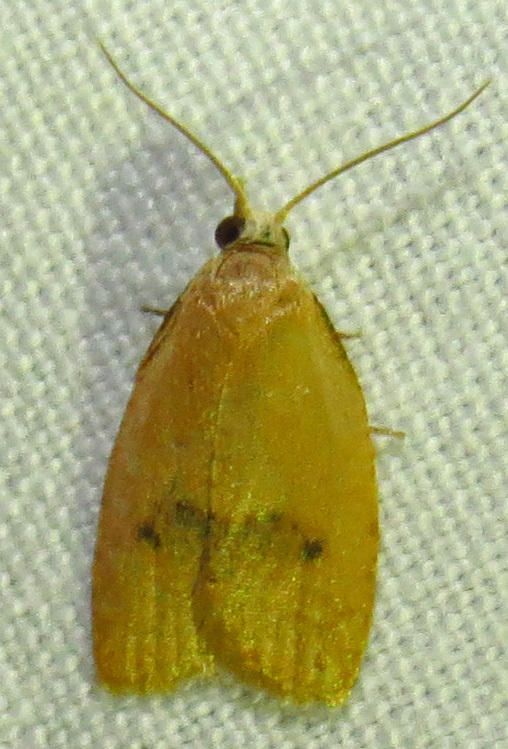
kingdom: Animalia
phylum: Arthropoda
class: Insecta
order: Lepidoptera
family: Tortricidae
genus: Sparganothoides
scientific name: Sparganothoides lentiginosana
